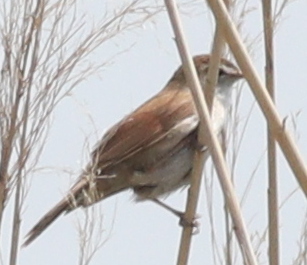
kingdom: Animalia
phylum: Chordata
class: Aves
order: Passeriformes
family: Cettiidae
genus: Cettia
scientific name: Cettia cetti
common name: Cetti's warbler
